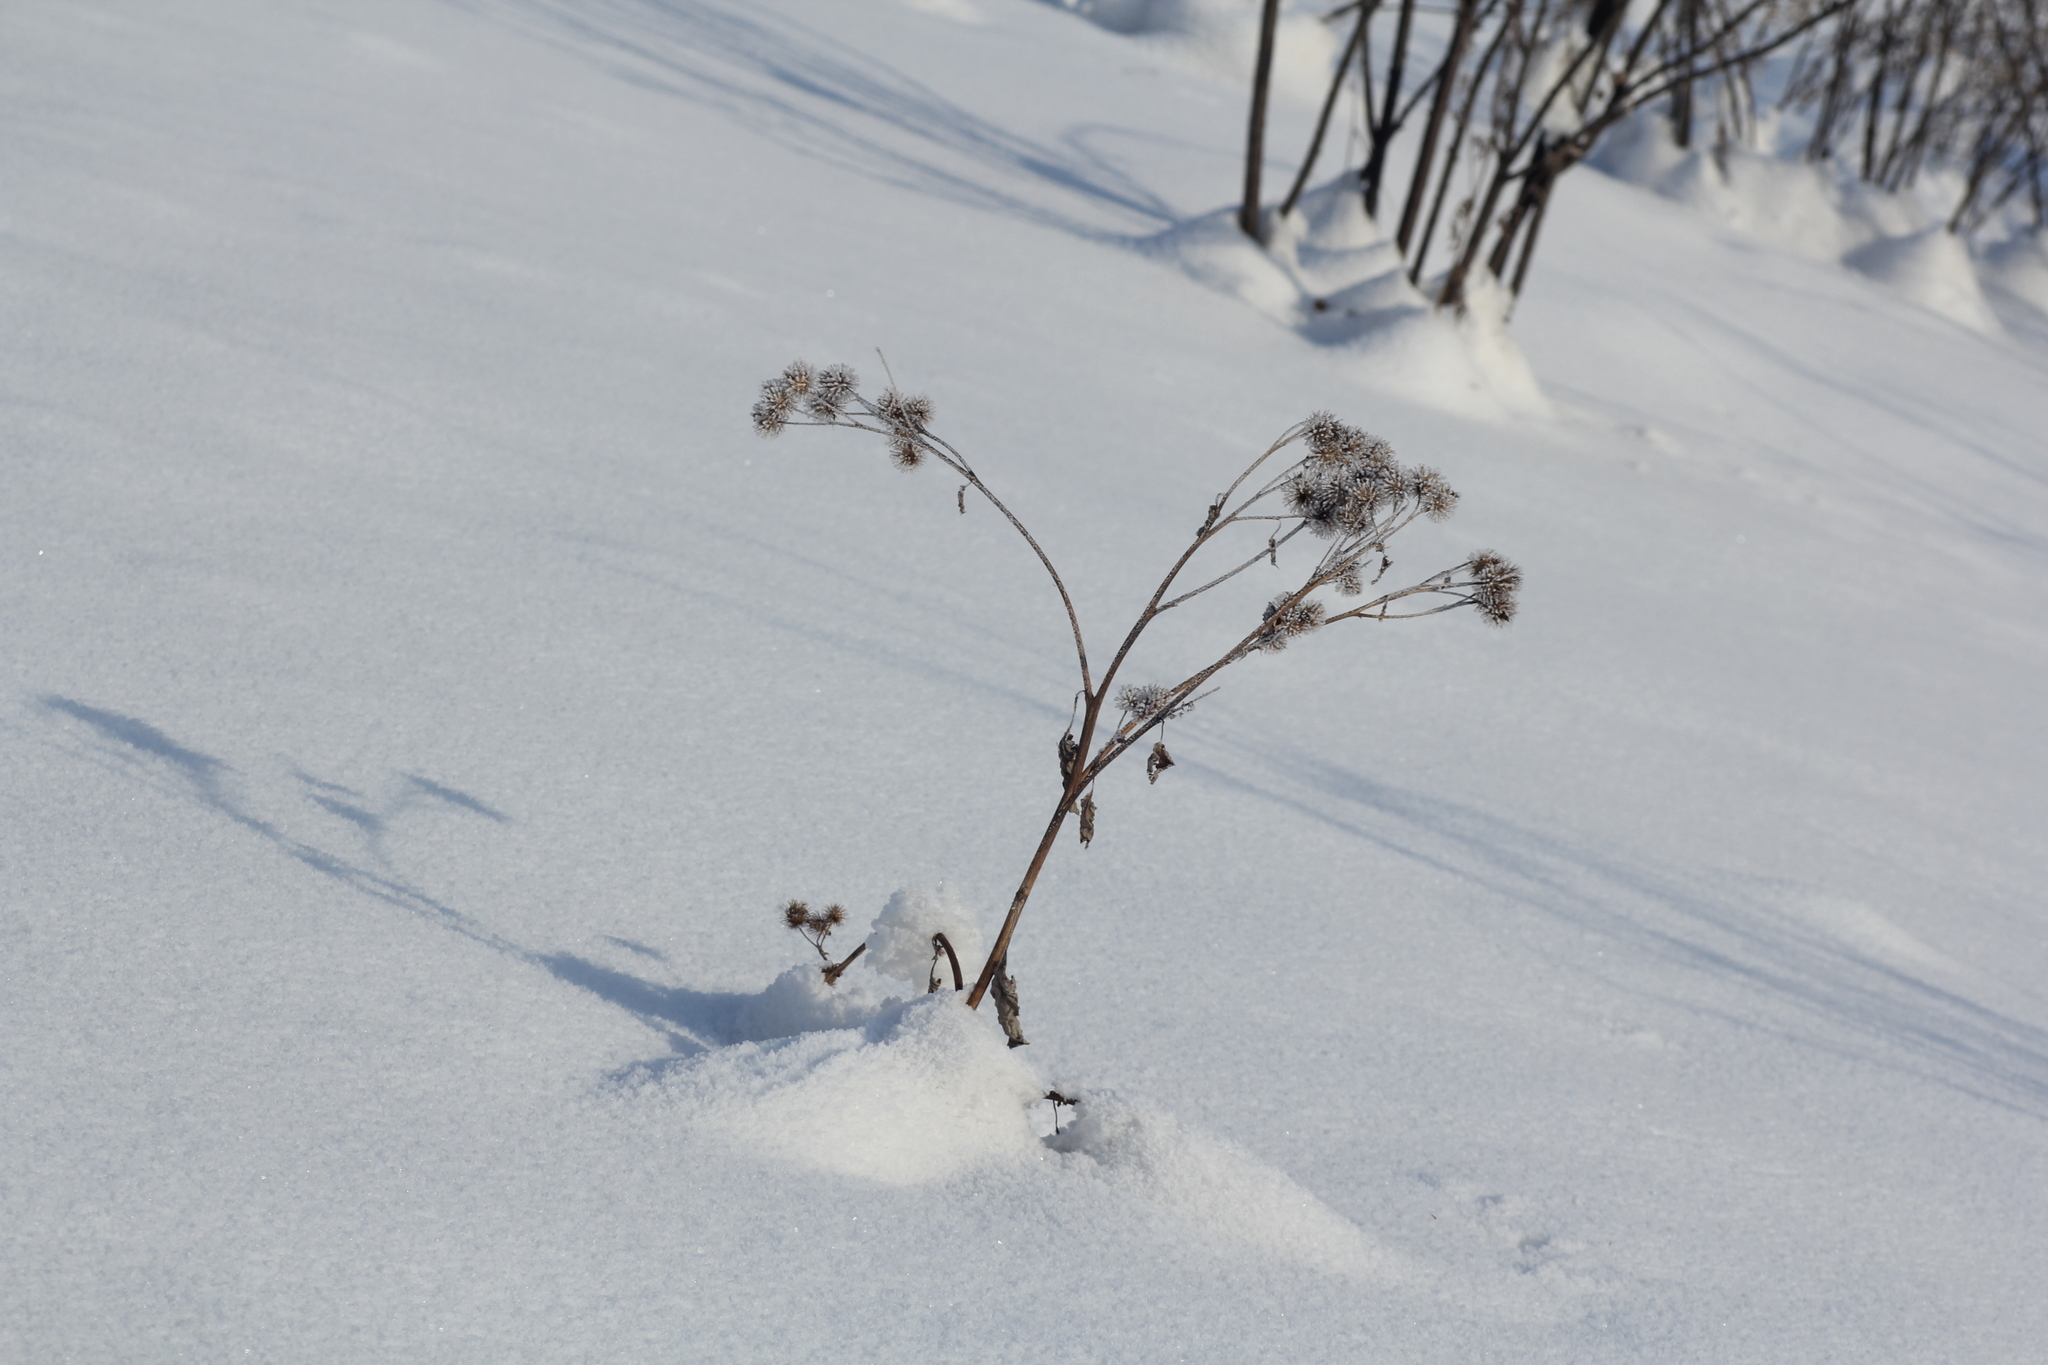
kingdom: Plantae
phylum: Tracheophyta
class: Magnoliopsida
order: Asterales
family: Asteraceae
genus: Arctium
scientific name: Arctium tomentosum
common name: Woolly burdock
